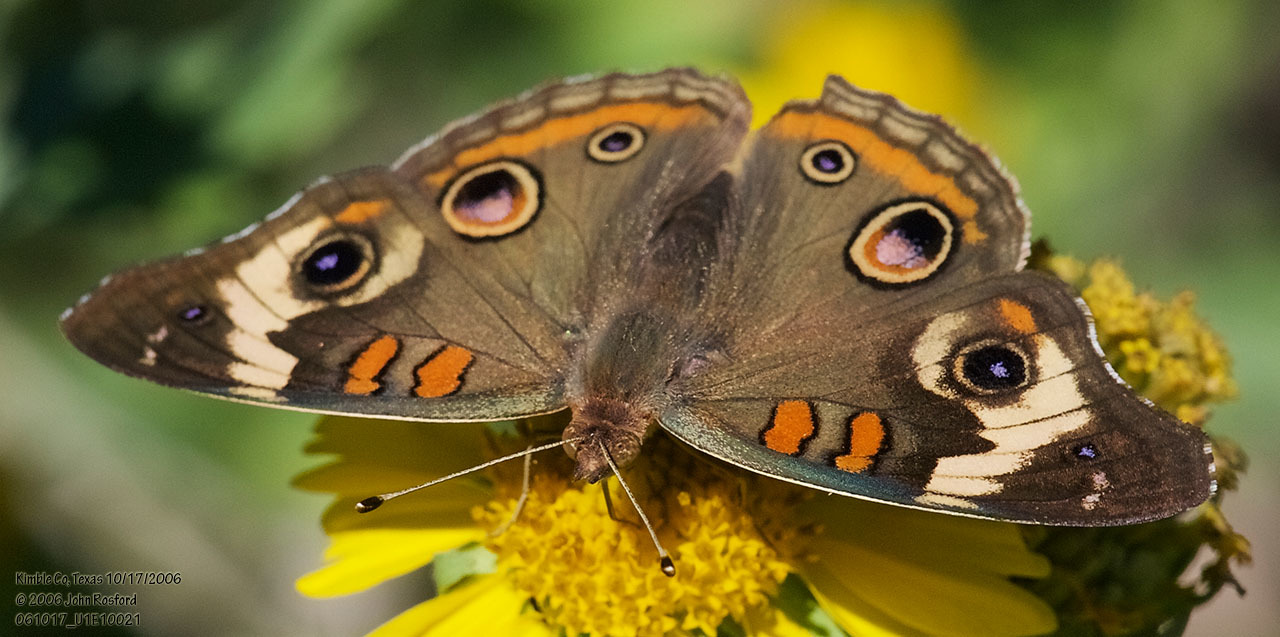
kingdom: Animalia
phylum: Arthropoda
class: Insecta
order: Lepidoptera
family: Nymphalidae
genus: Junonia
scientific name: Junonia coenia
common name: Common buckeye
